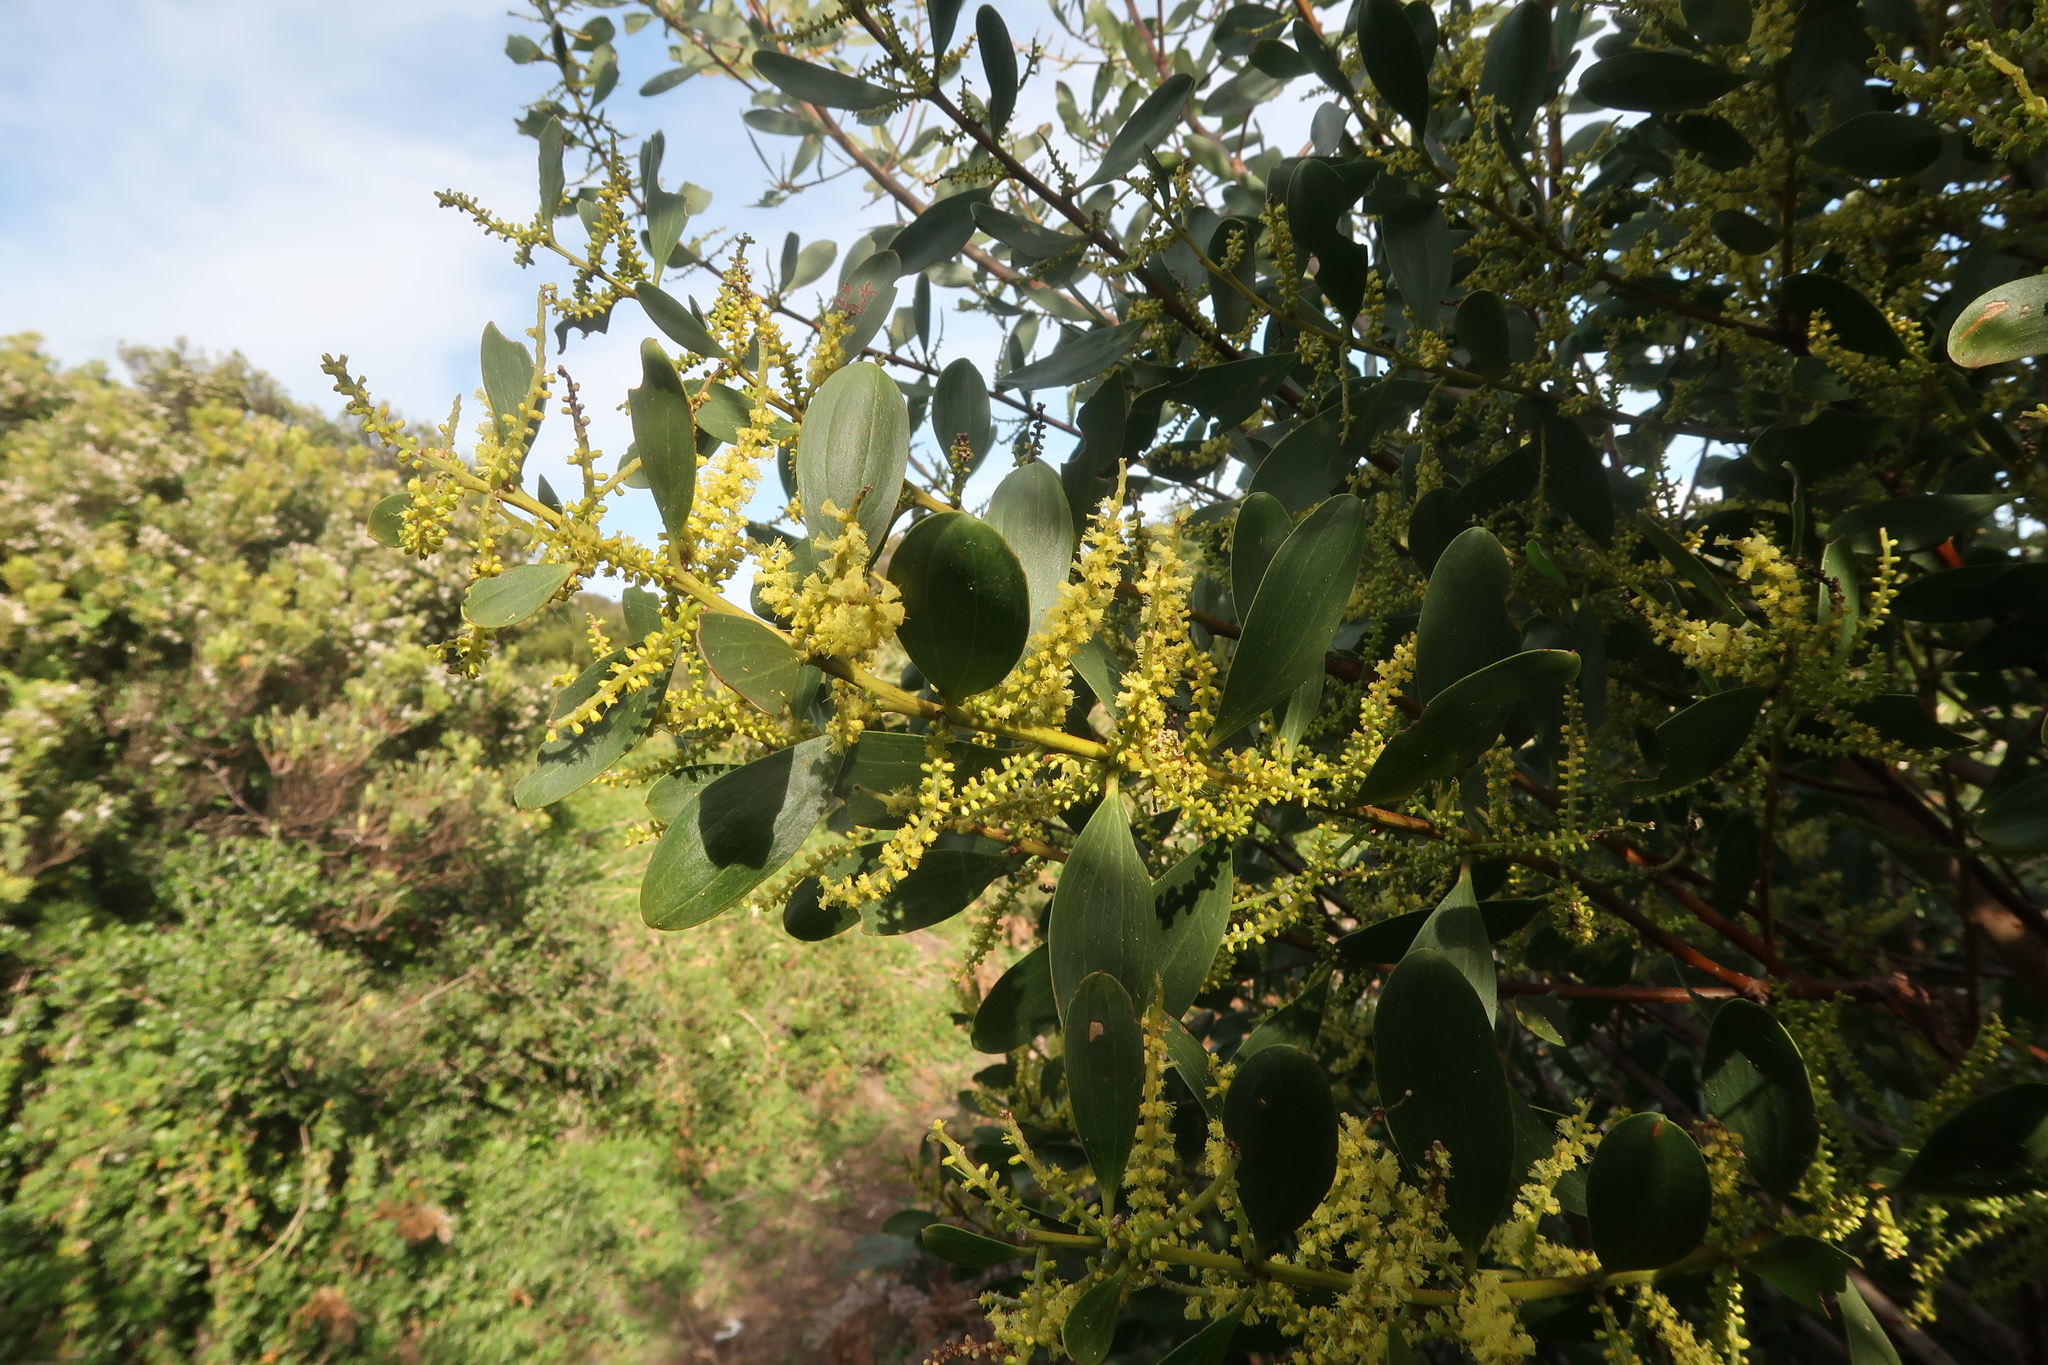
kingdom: Plantae
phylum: Tracheophyta
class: Magnoliopsida
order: Fabales
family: Fabaceae
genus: Acacia
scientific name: Acacia longifolia
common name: Sydney golden wattle
